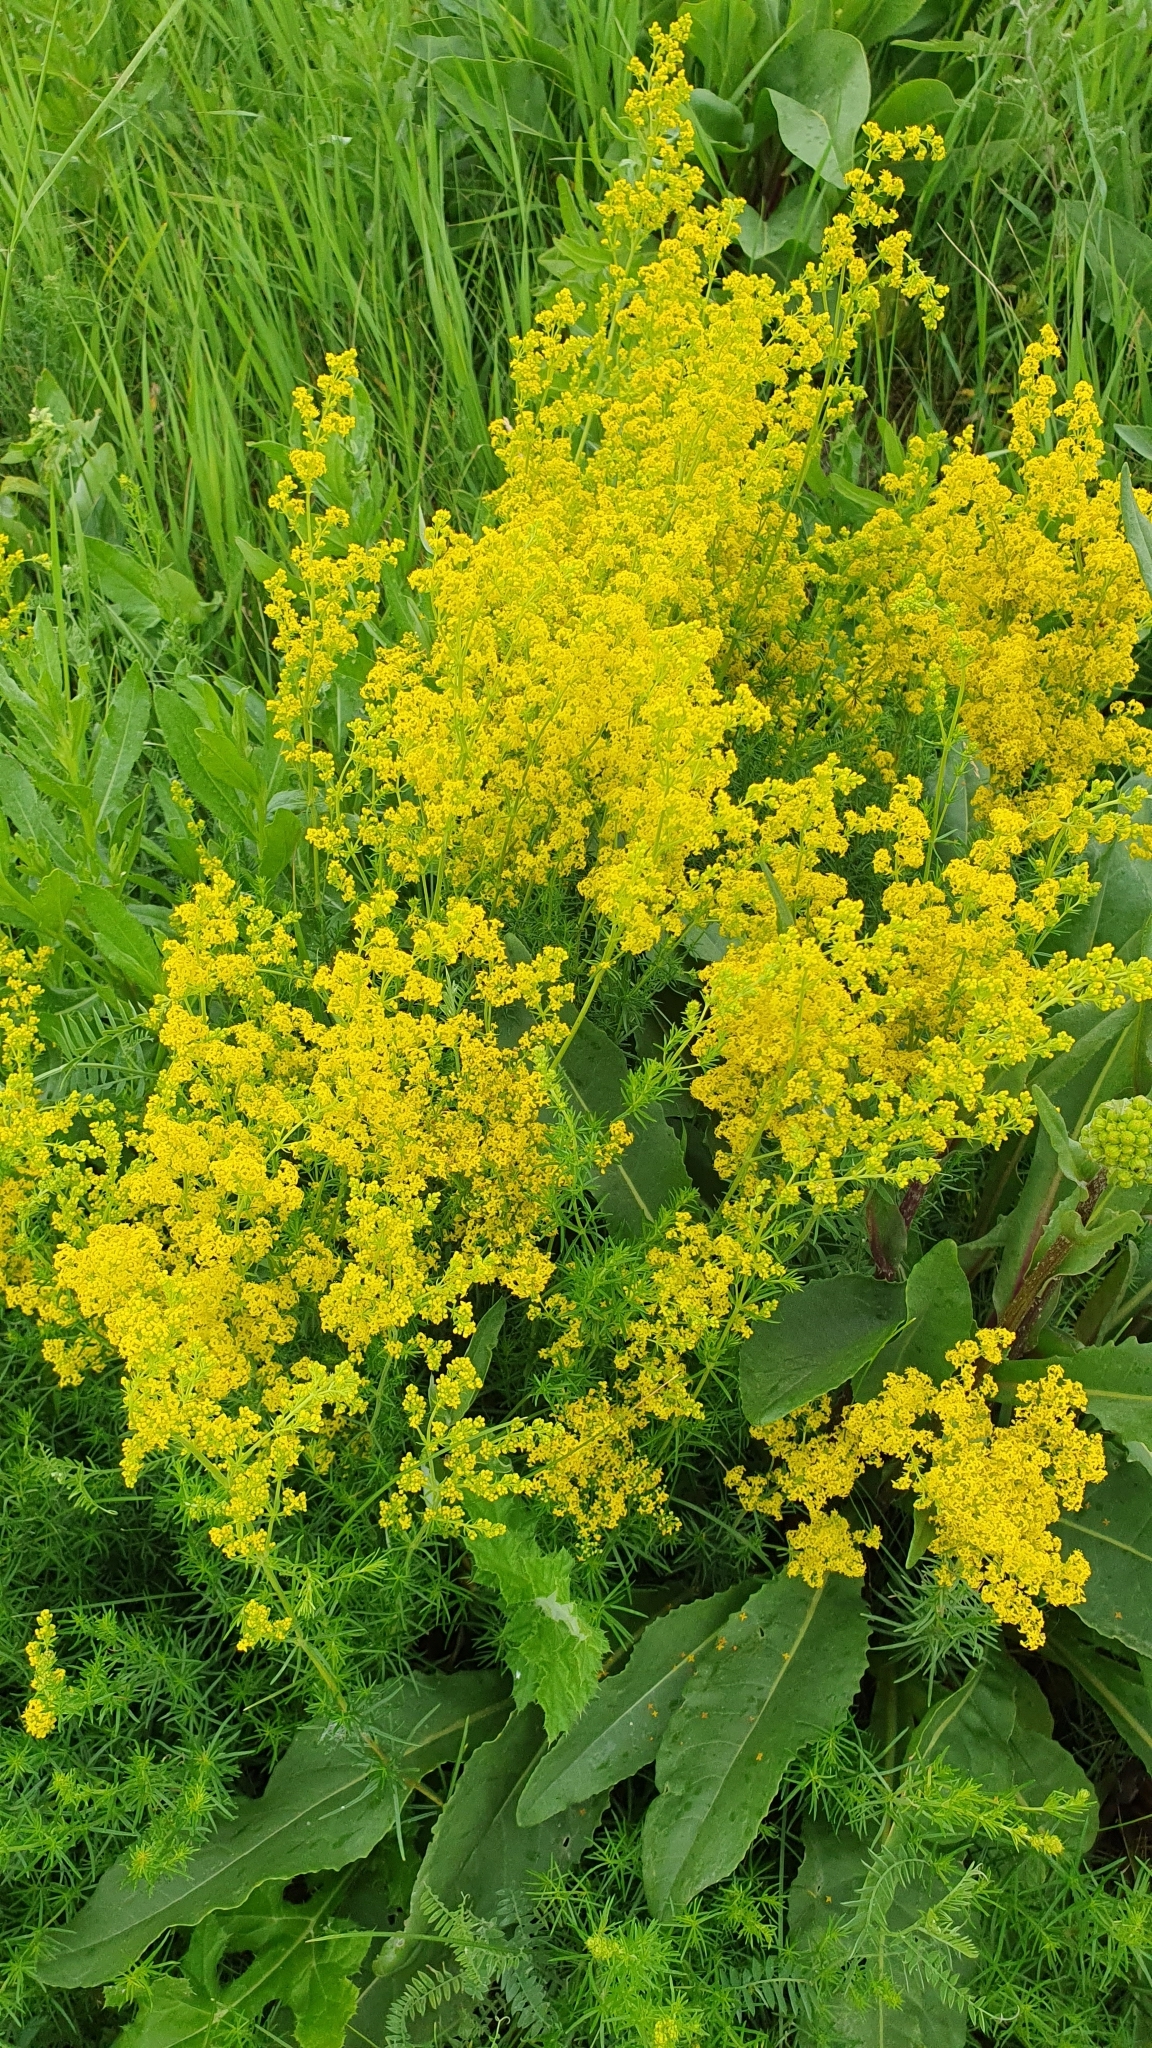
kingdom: Plantae
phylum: Tracheophyta
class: Magnoliopsida
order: Gentianales
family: Rubiaceae
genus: Galium
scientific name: Galium verum
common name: Lady's bedstraw
